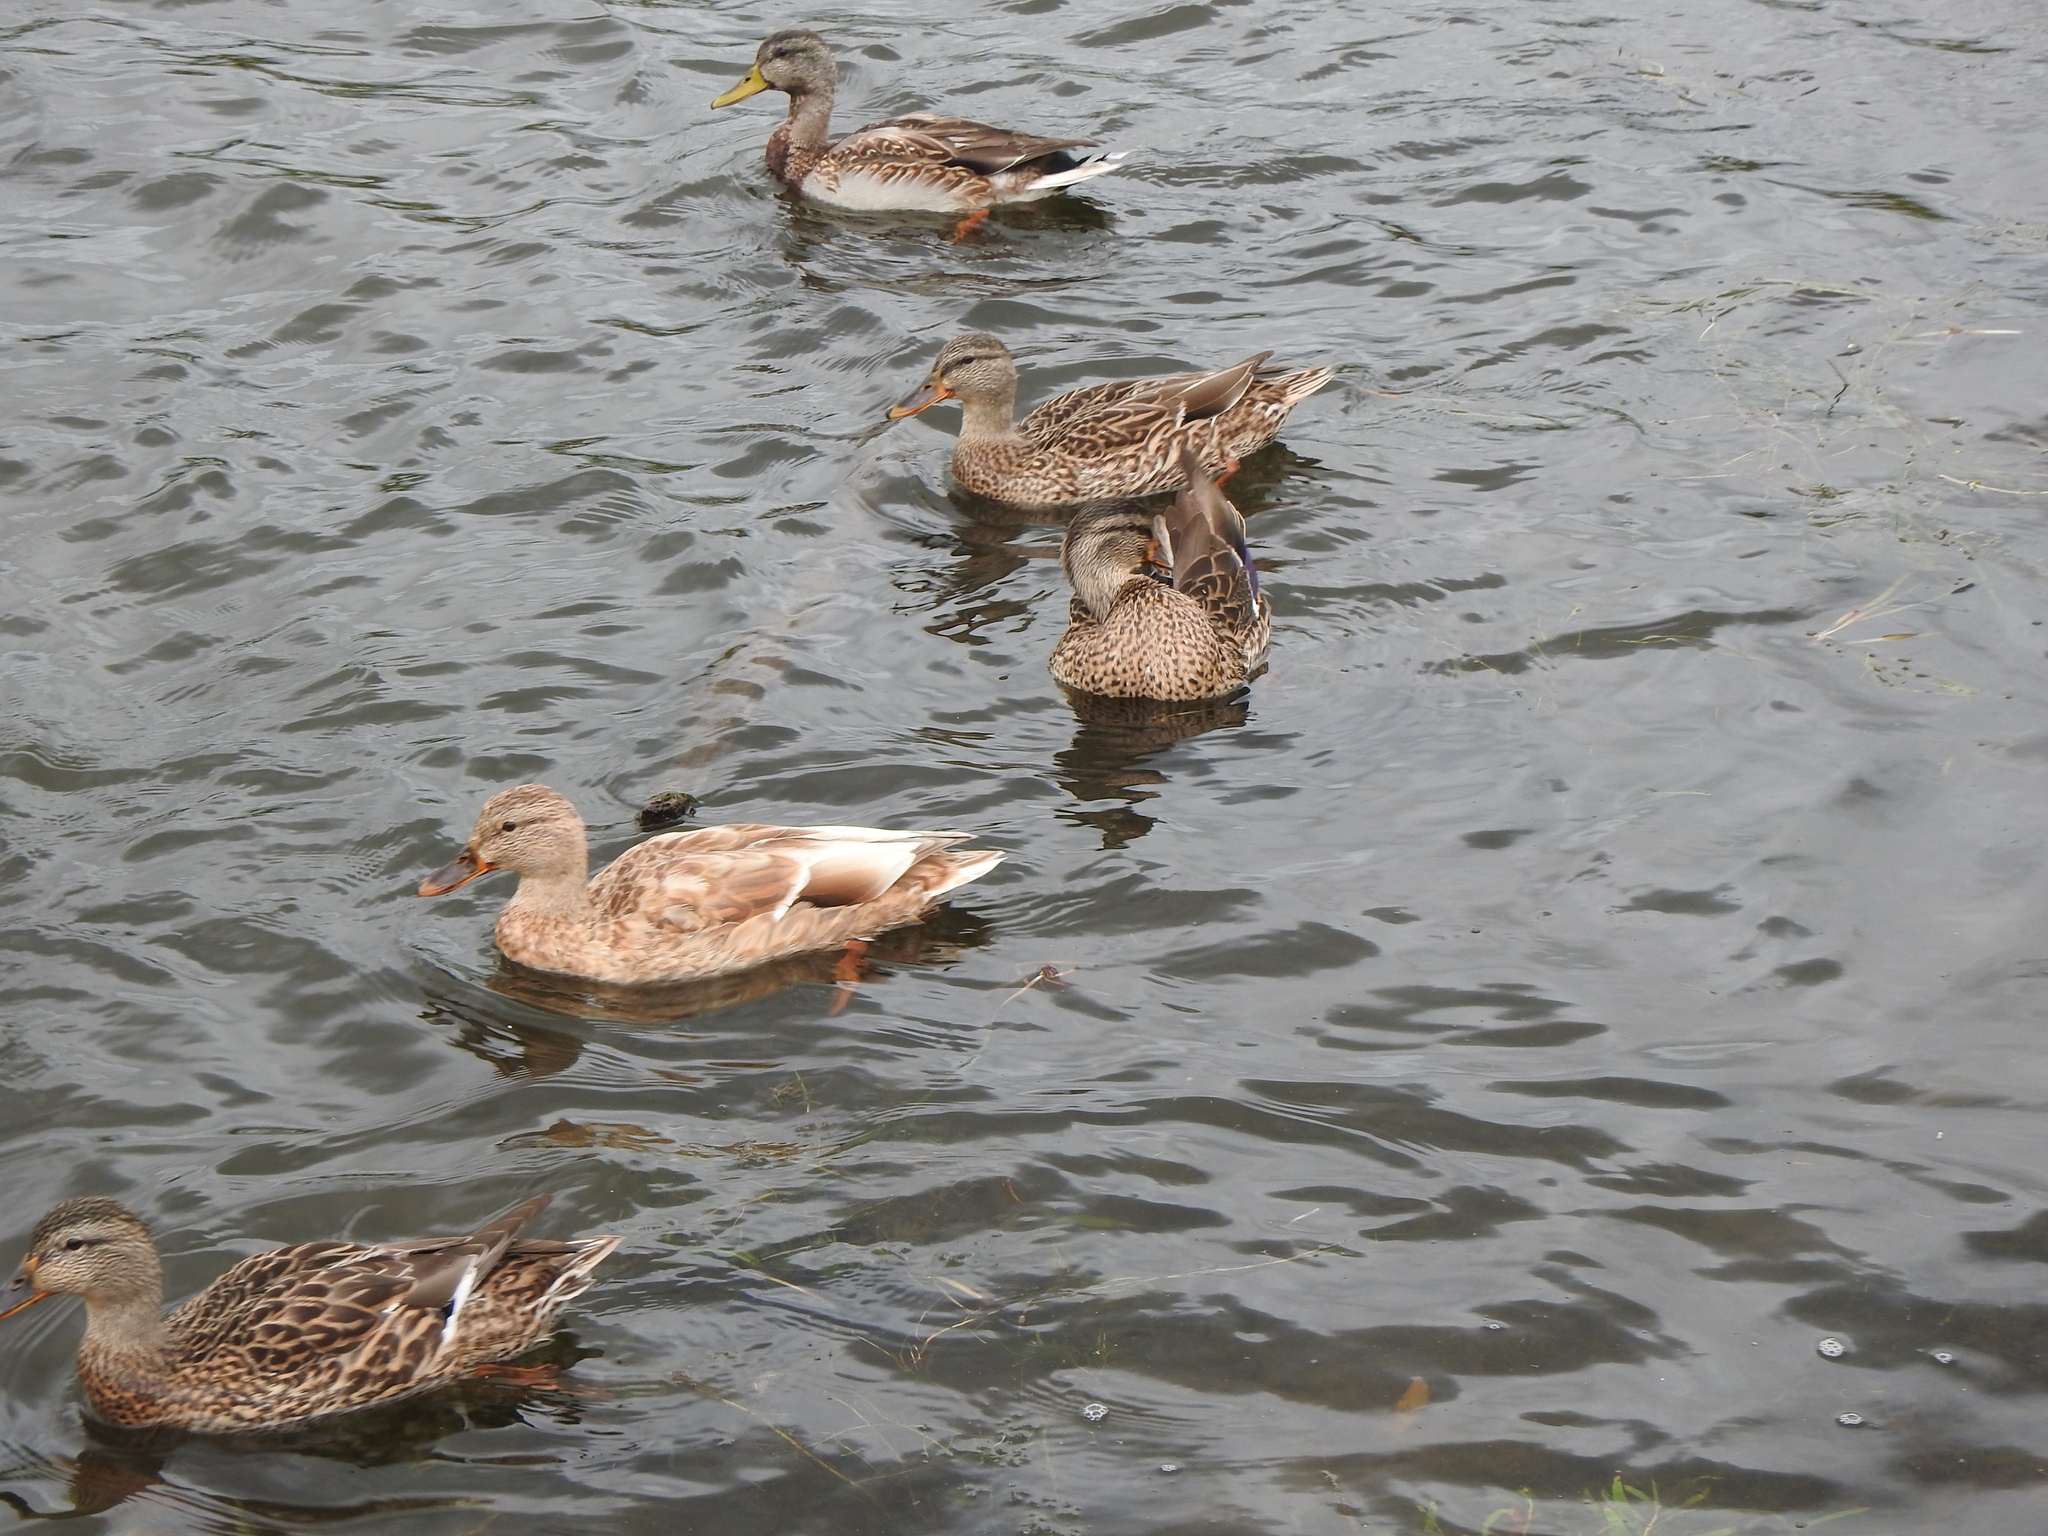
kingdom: Animalia
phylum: Chordata
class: Aves
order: Anseriformes
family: Anatidae
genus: Anas
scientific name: Anas platyrhynchos
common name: Mallard
